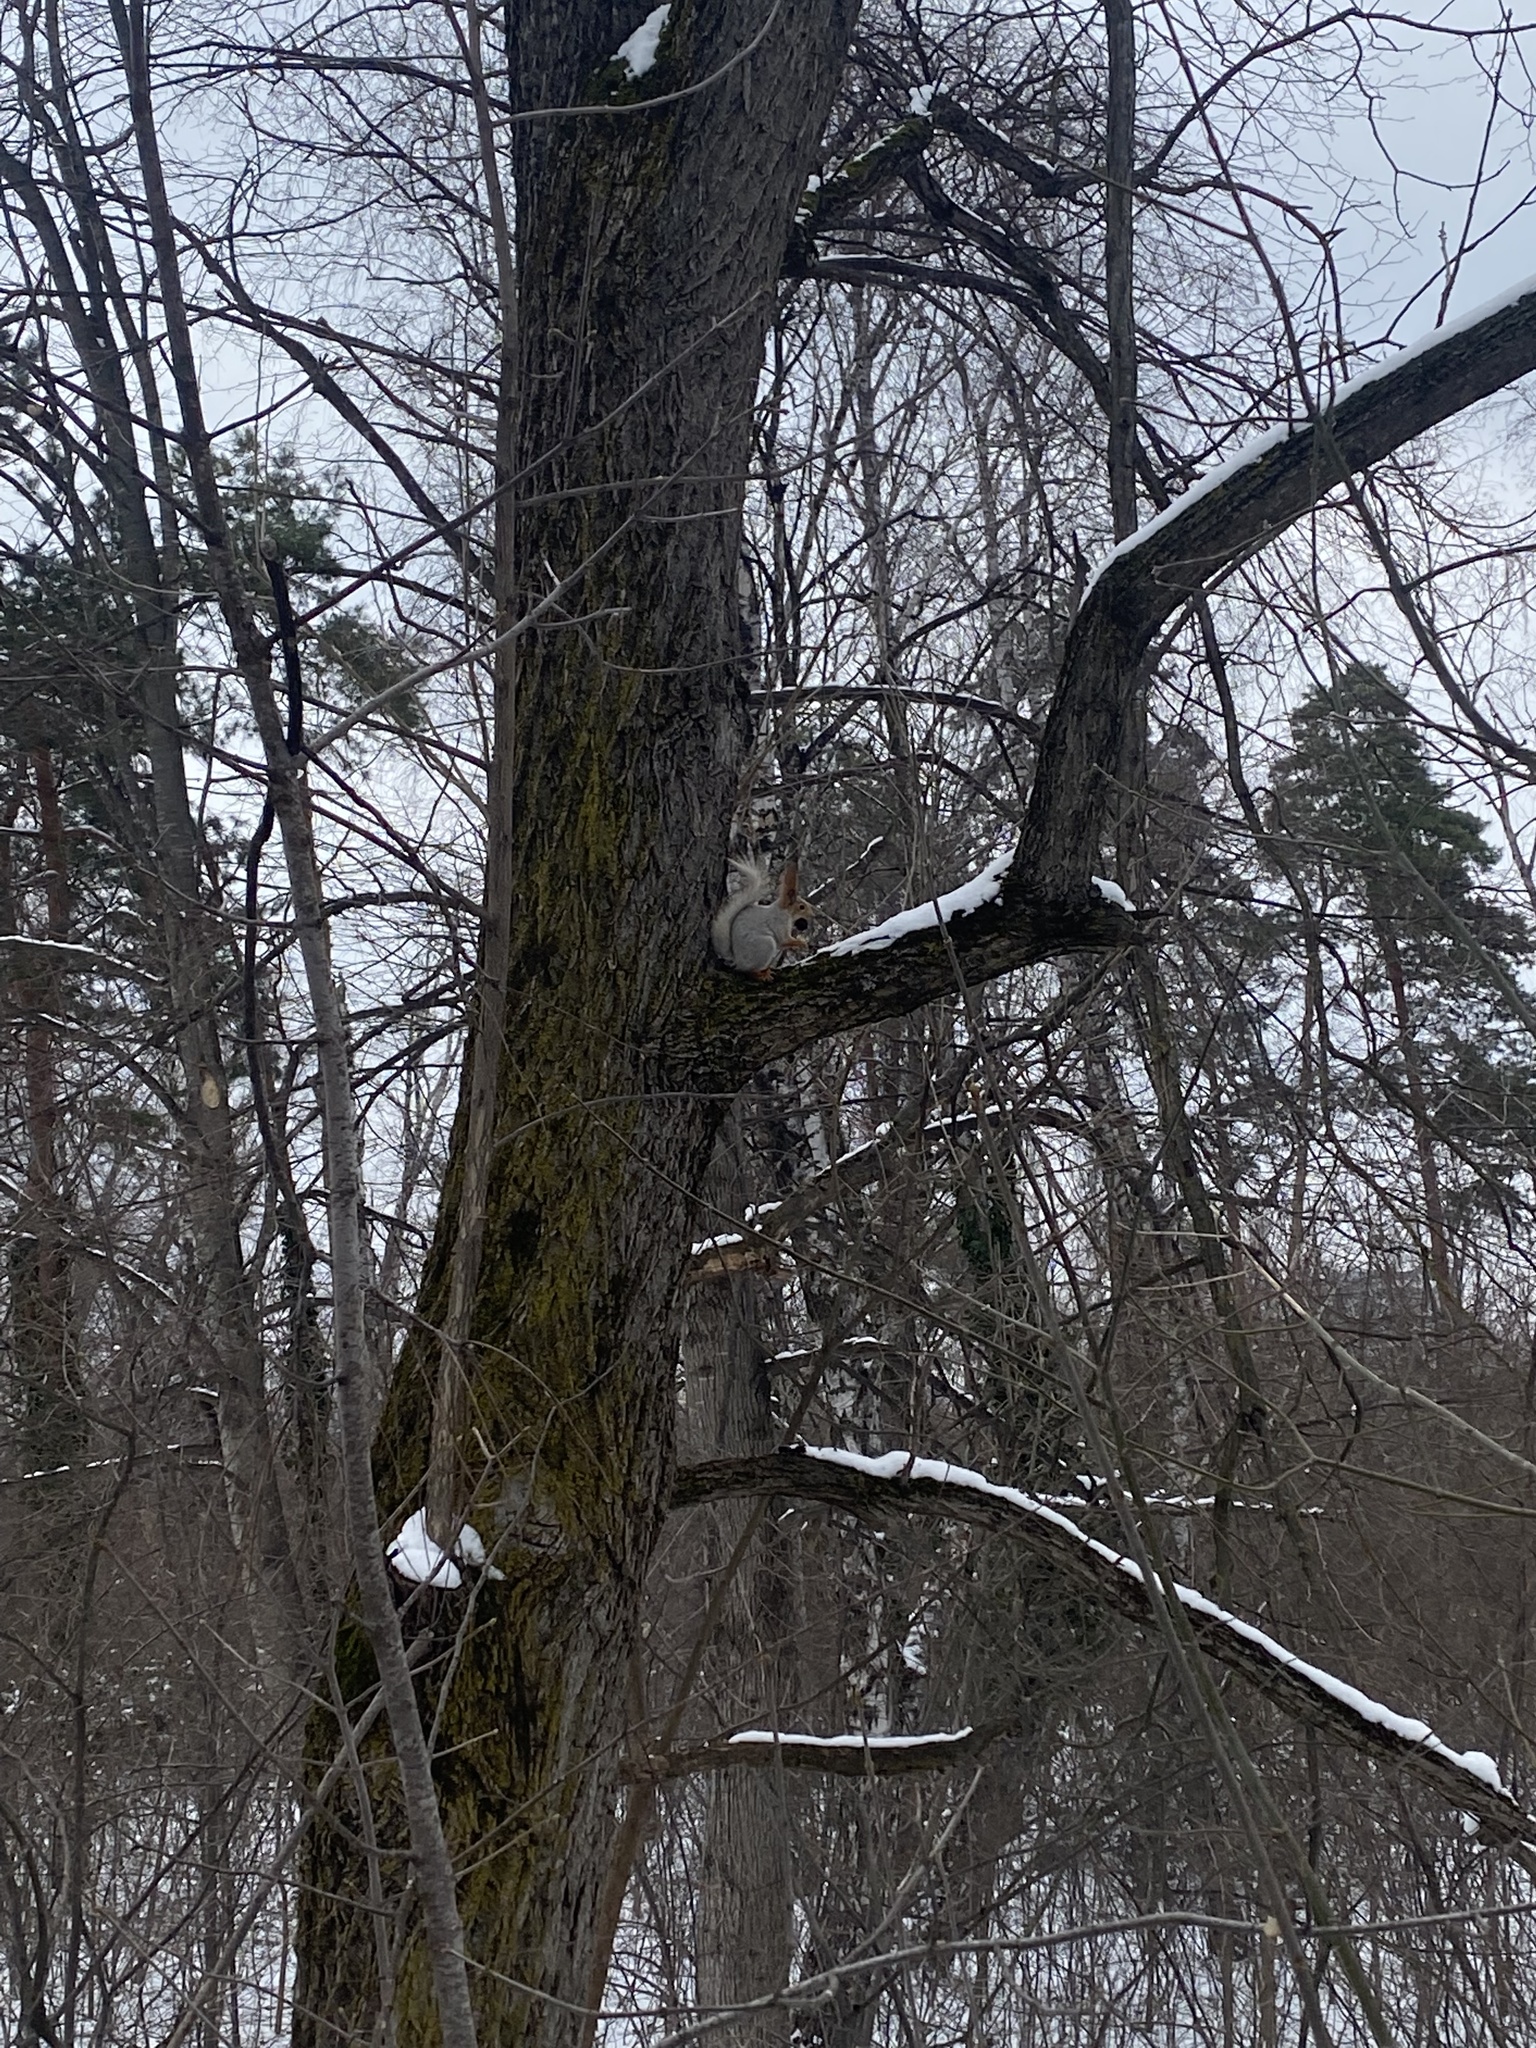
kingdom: Animalia
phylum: Chordata
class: Mammalia
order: Rodentia
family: Sciuridae
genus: Sciurus
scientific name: Sciurus vulgaris
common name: Eurasian red squirrel
